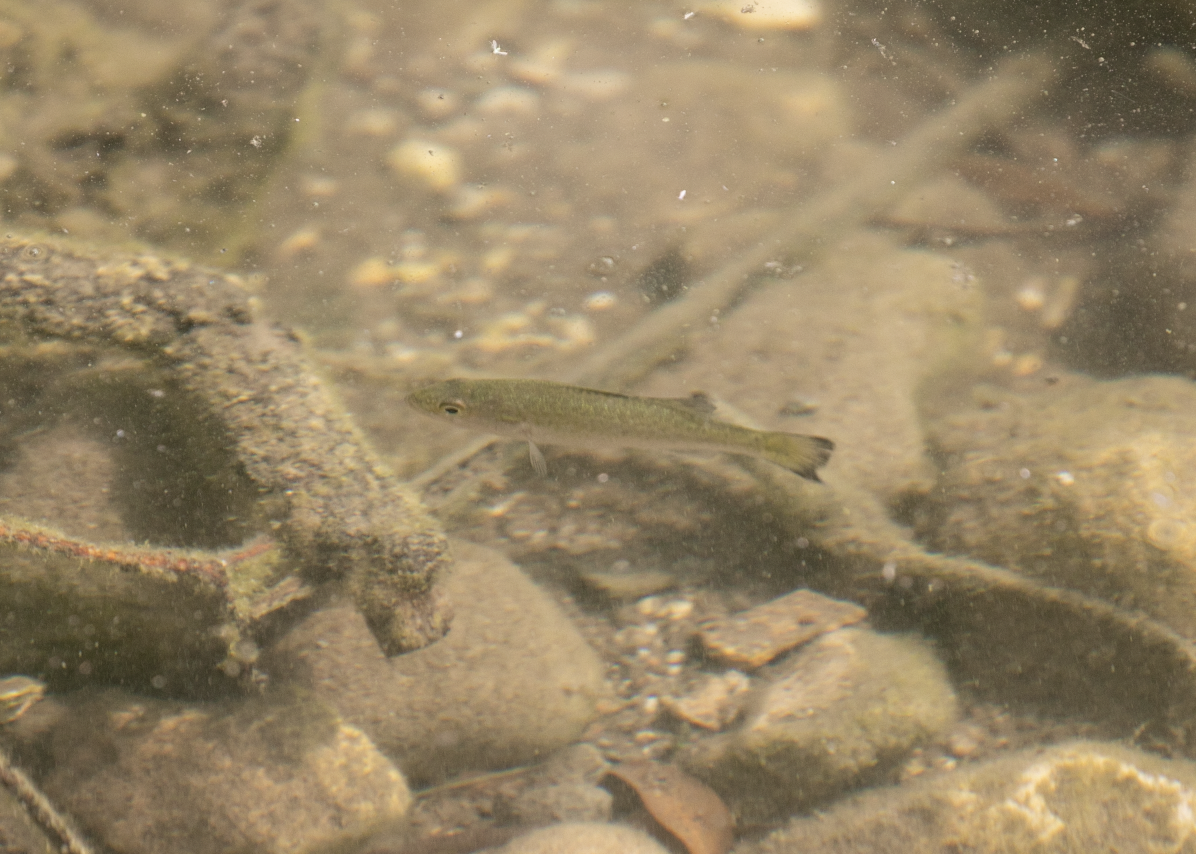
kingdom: Animalia
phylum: Chordata
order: Perciformes
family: Centrarchidae
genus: Micropterus
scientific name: Micropterus
